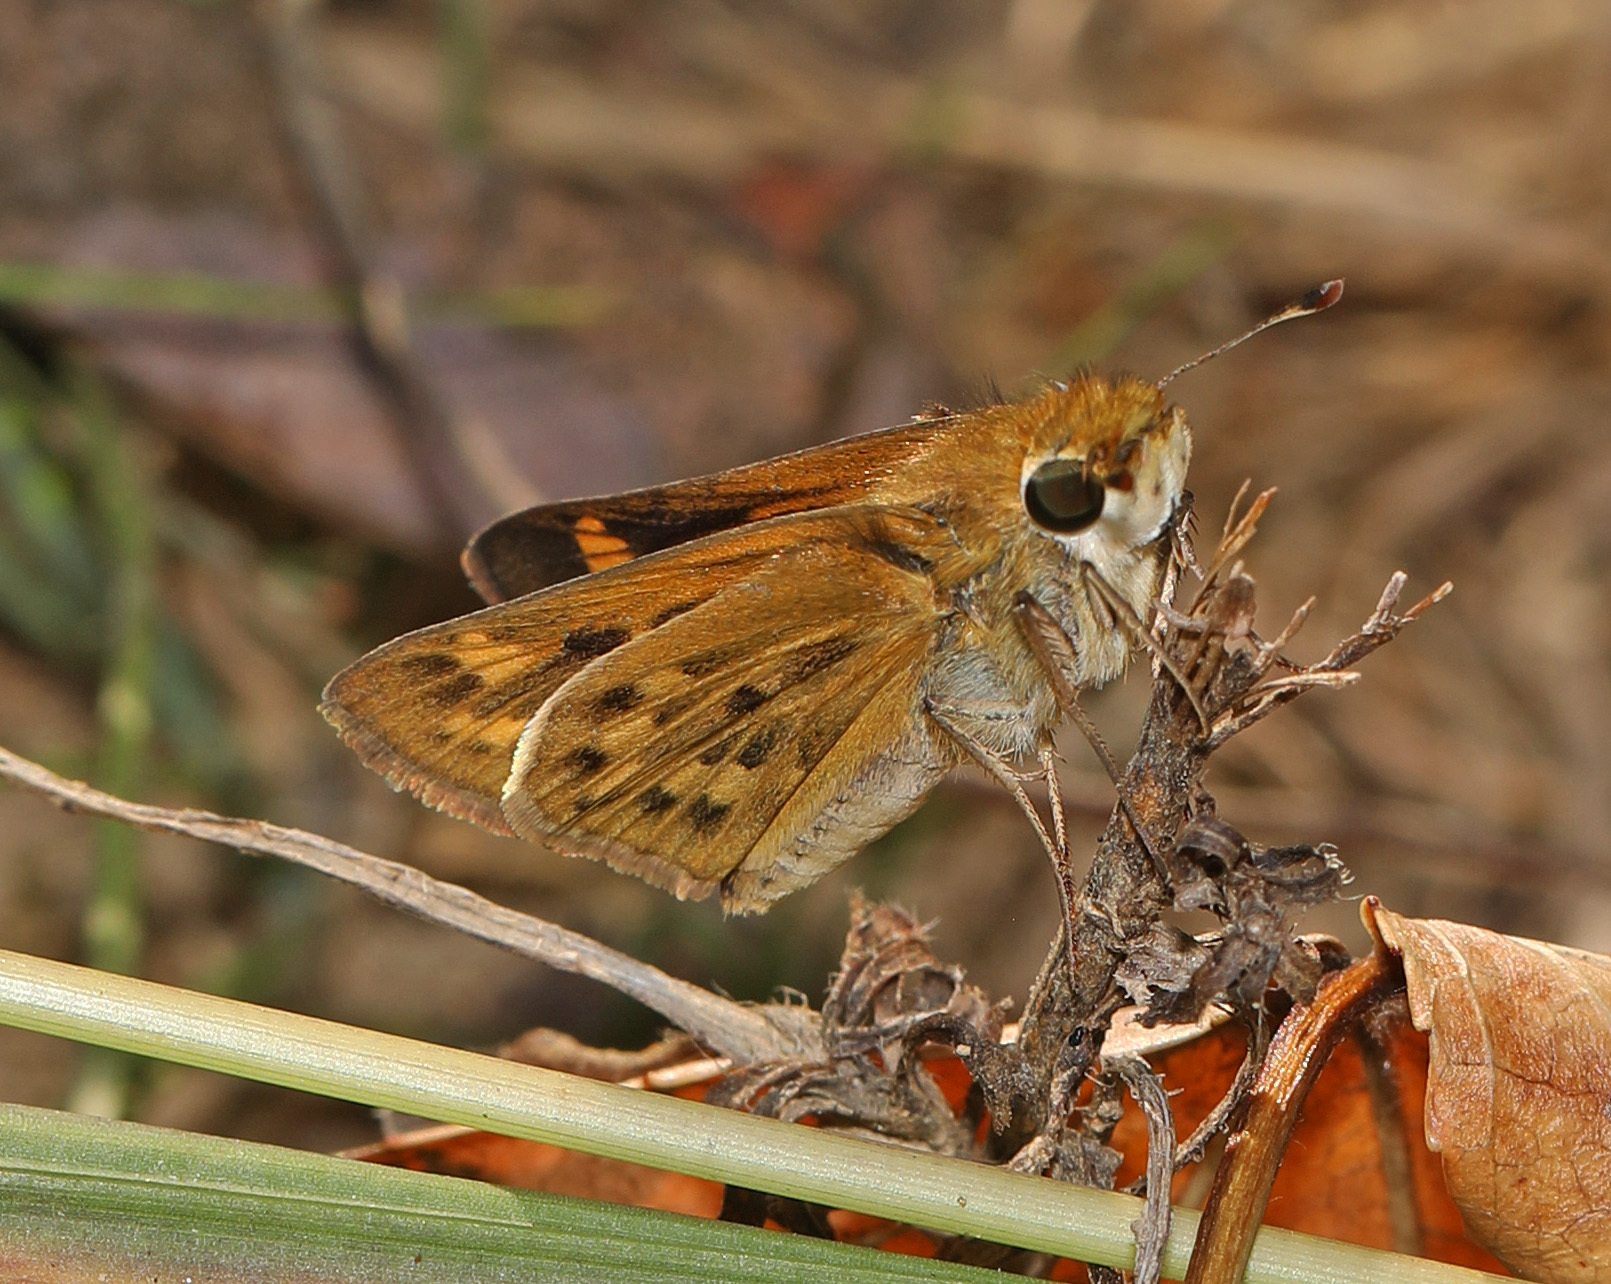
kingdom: Animalia
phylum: Arthropoda
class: Insecta
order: Lepidoptera
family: Hesperiidae
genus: Hylephila
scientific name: Hylephila phyleus
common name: Fiery skipper
